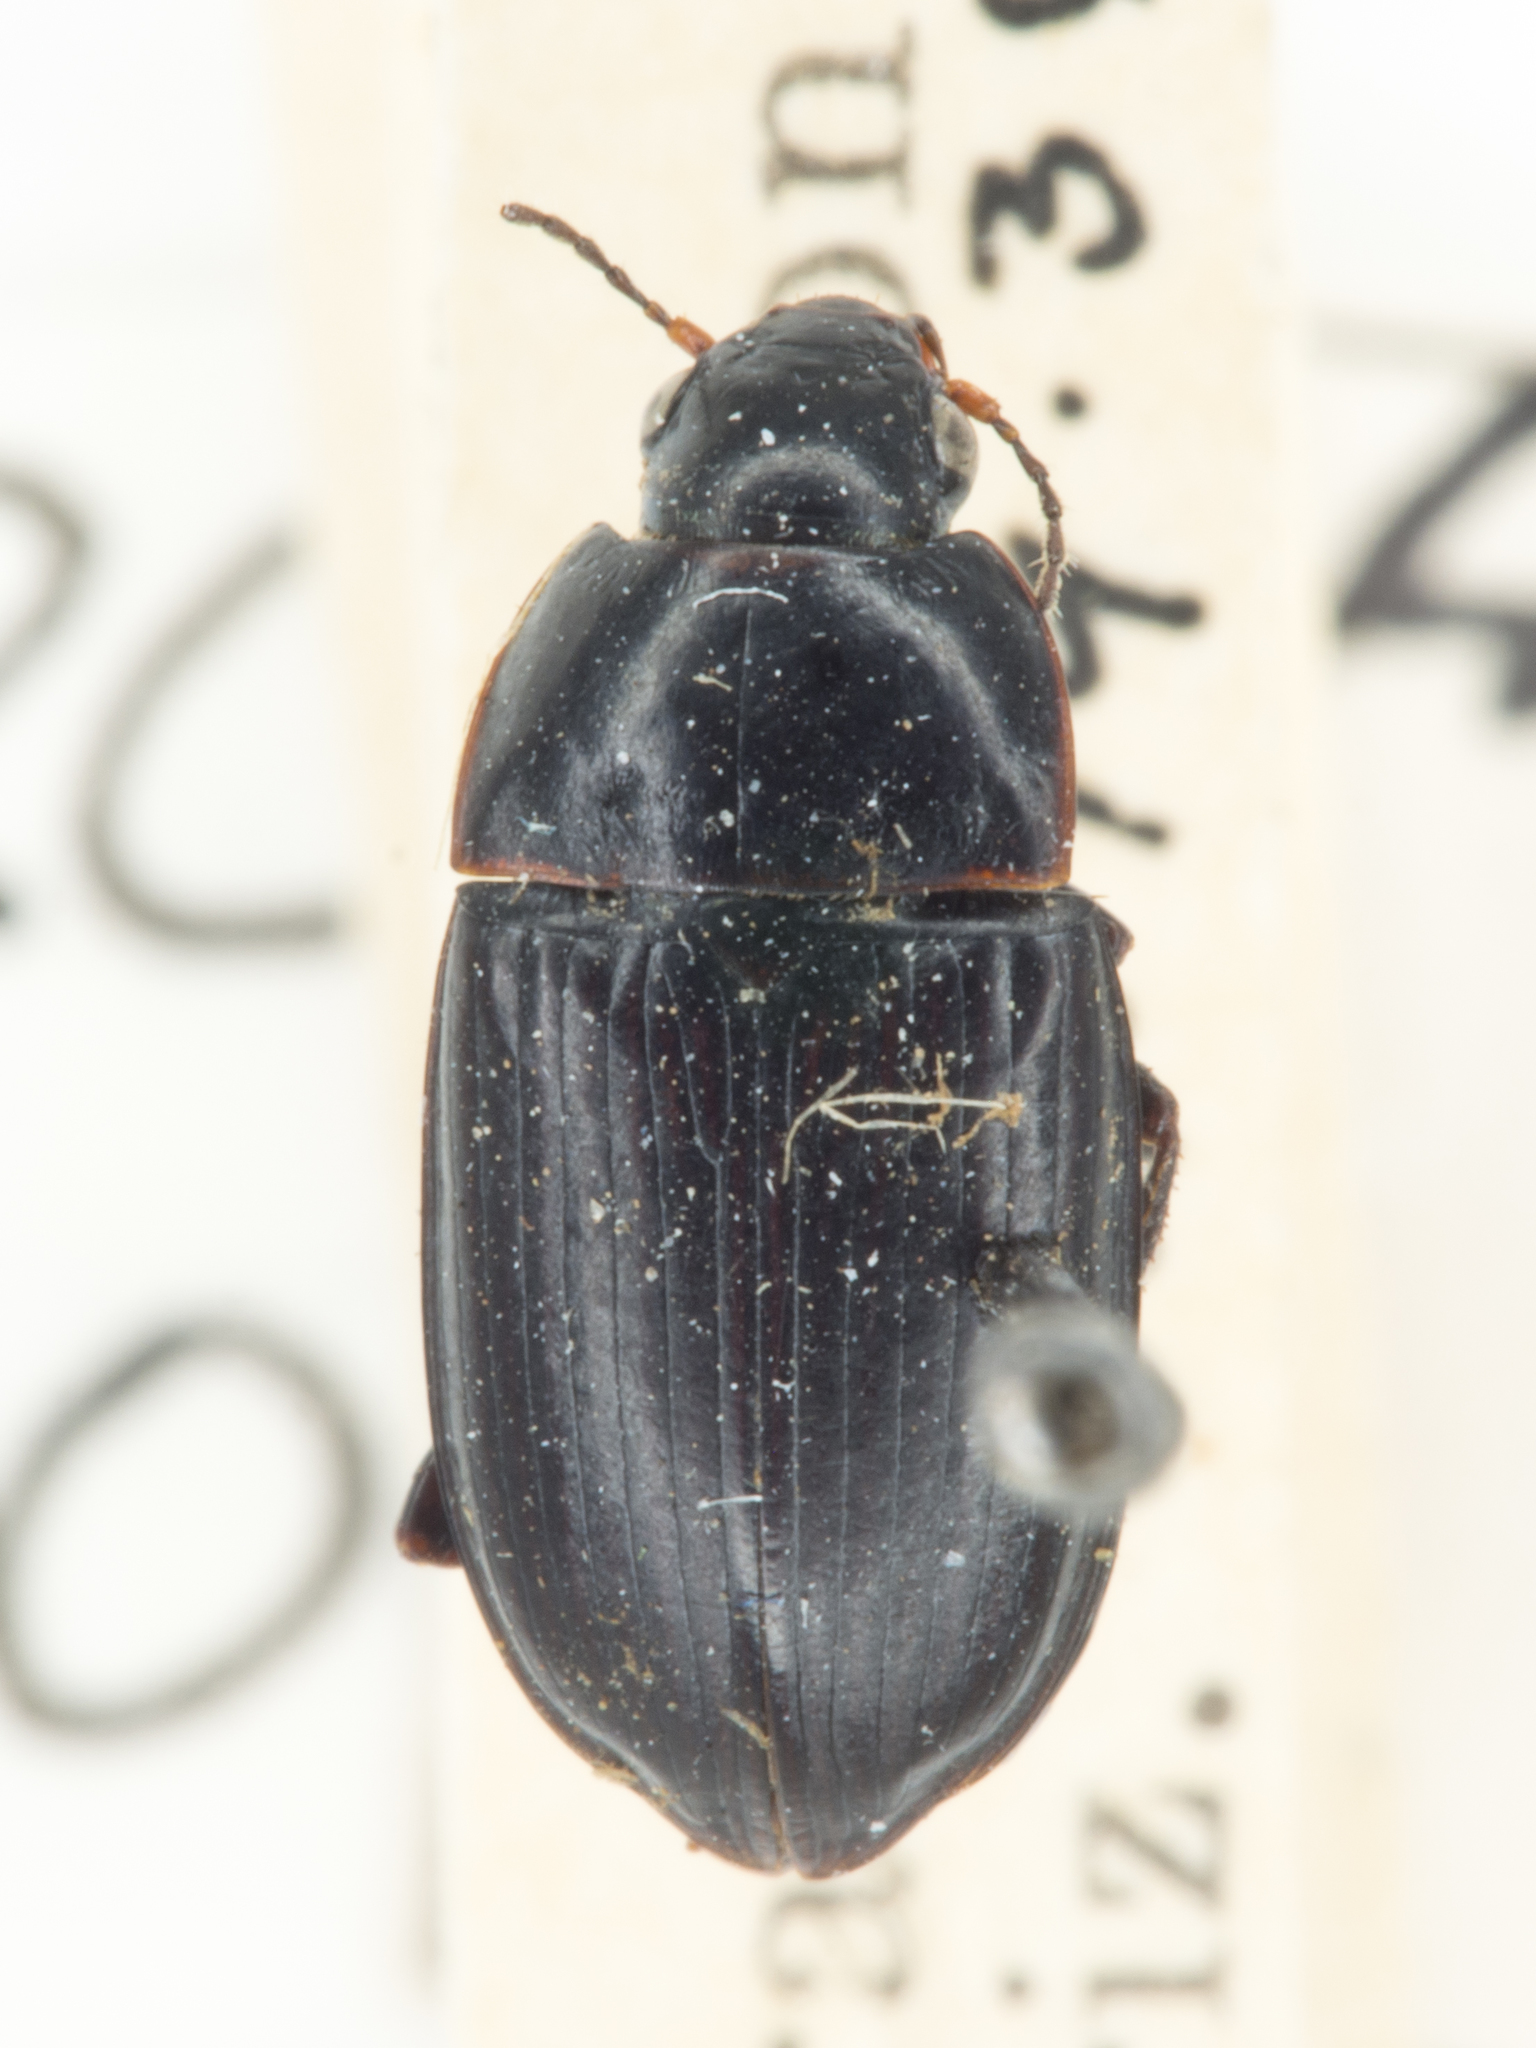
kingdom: Animalia
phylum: Arthropoda
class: Insecta
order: Coleoptera
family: Carabidae
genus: Amara
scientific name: Amara farcta
